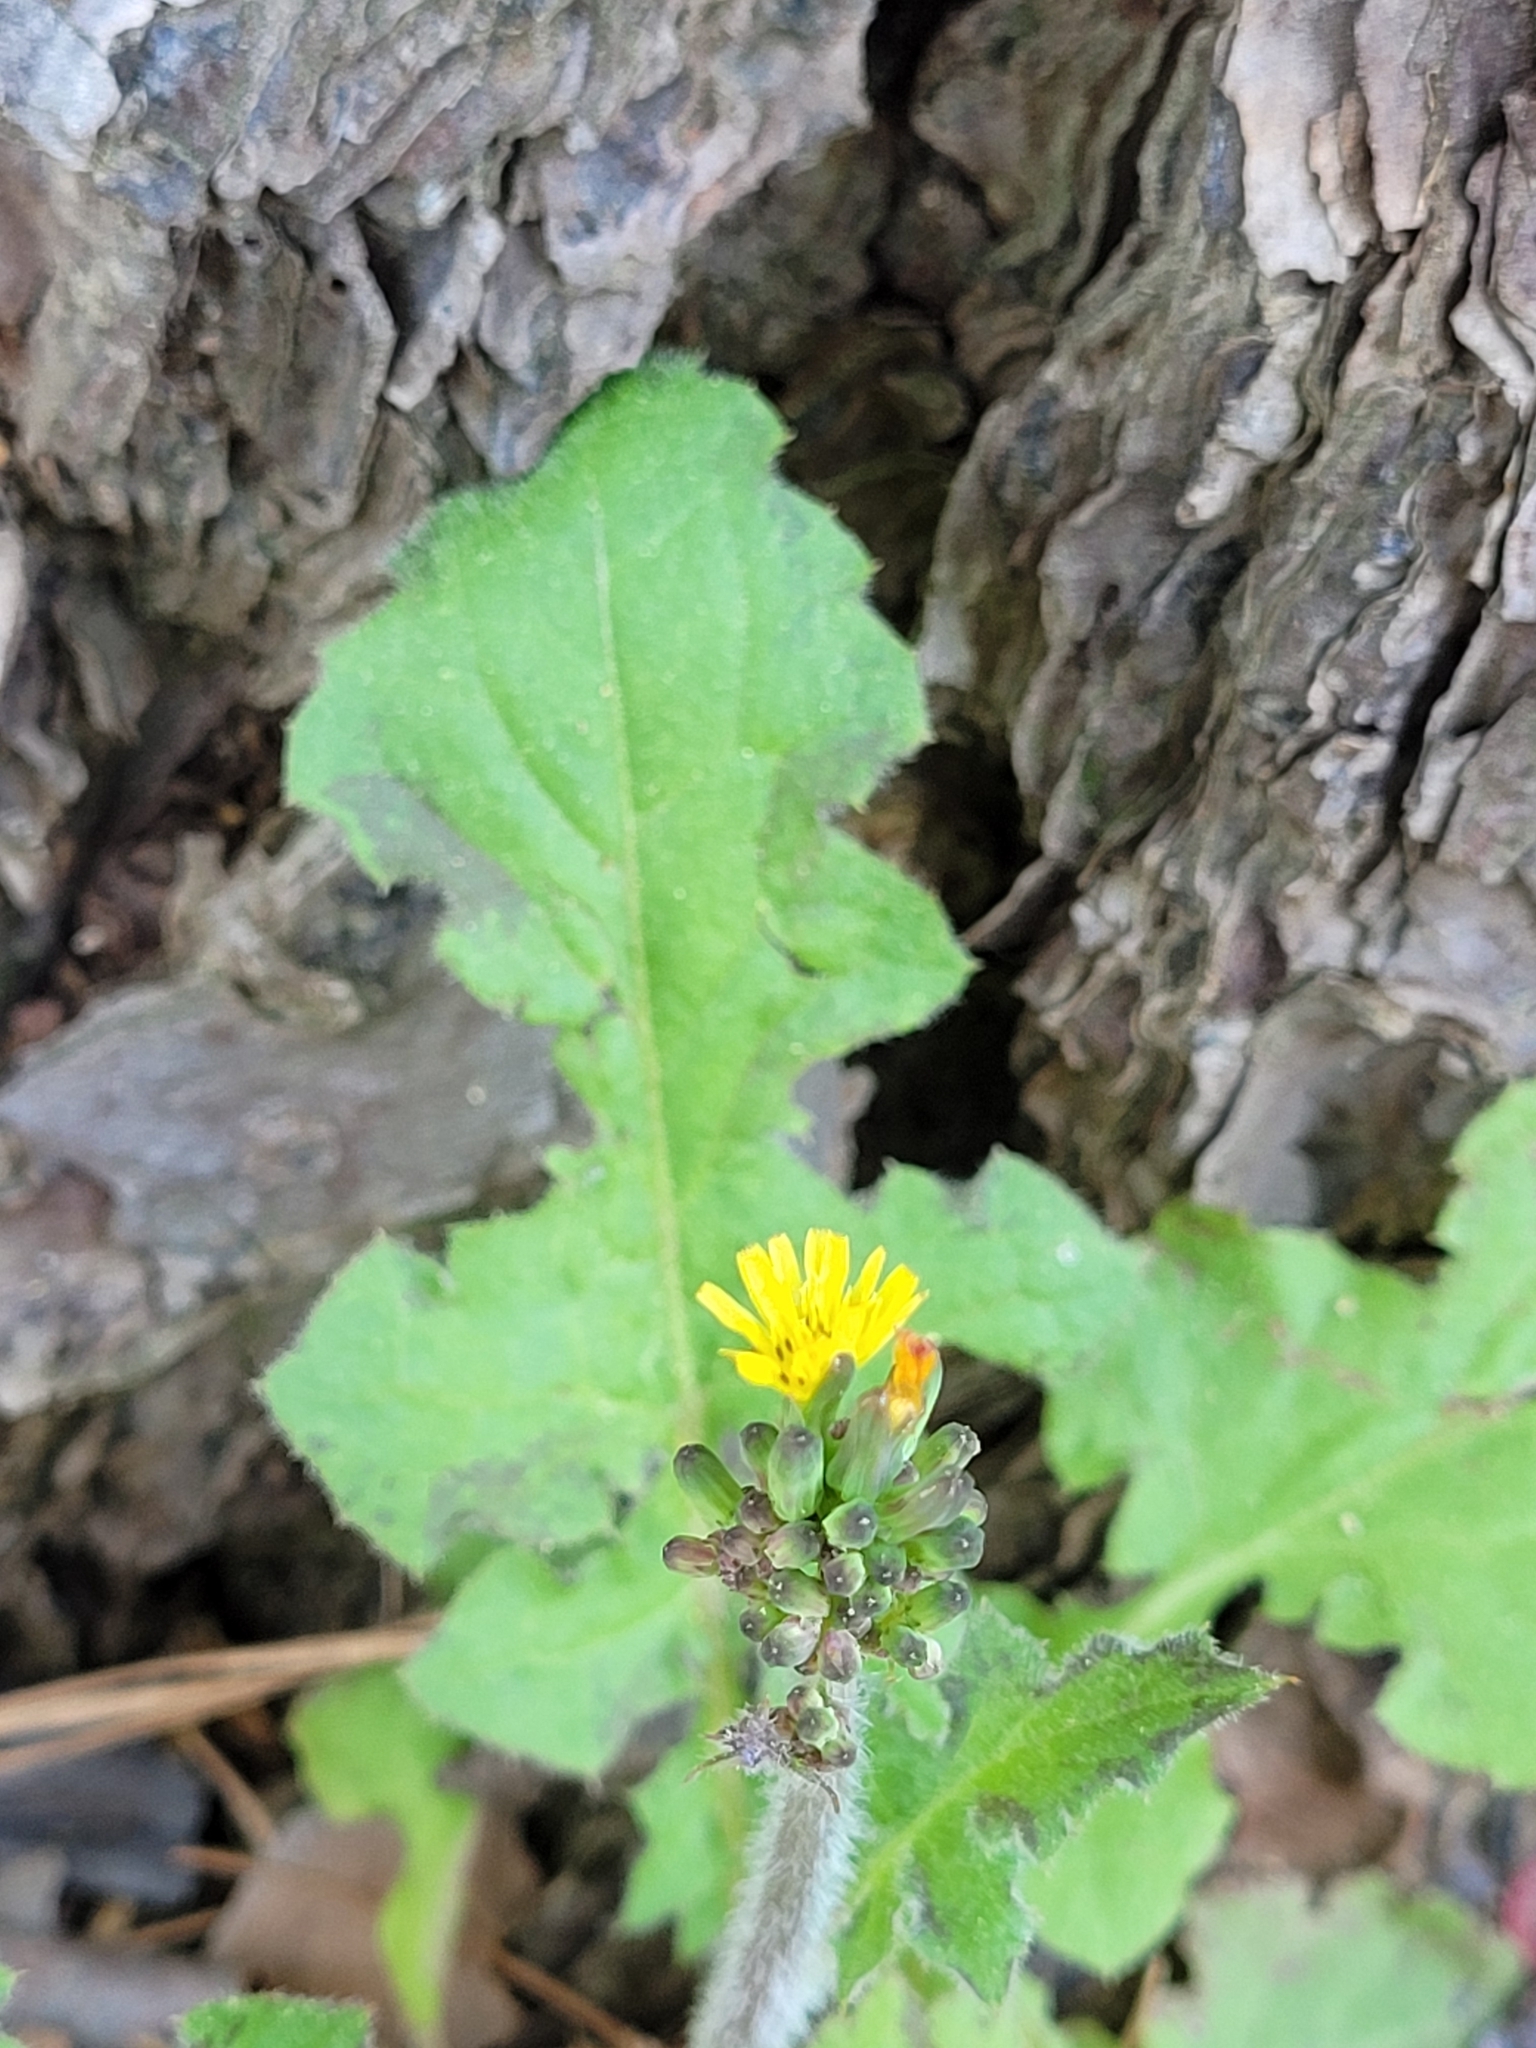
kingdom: Plantae
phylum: Tracheophyta
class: Magnoliopsida
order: Asterales
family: Asteraceae
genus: Youngia
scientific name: Youngia japonica
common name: Oriental false hawksbeard
